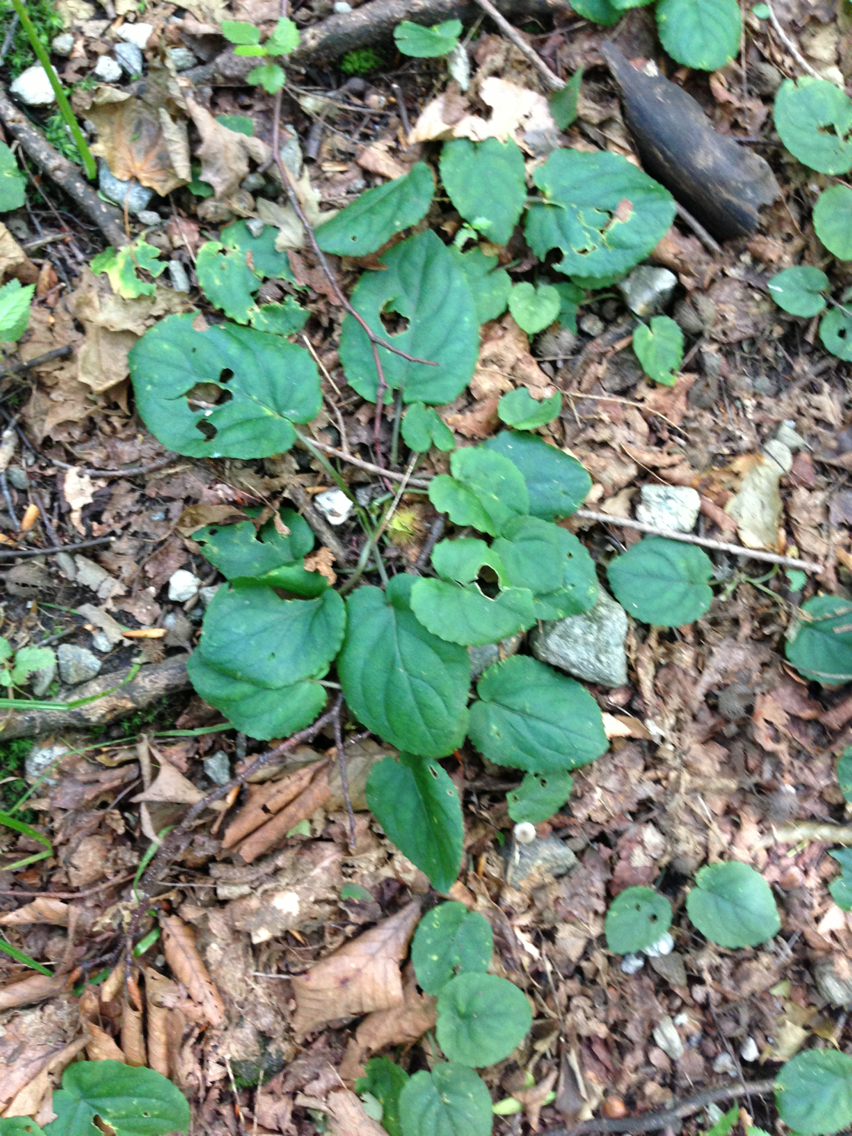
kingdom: Plantae
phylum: Tracheophyta
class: Magnoliopsida
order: Rosales
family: Rosaceae
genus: Dalibarda
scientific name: Dalibarda repens
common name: Dewdrop
